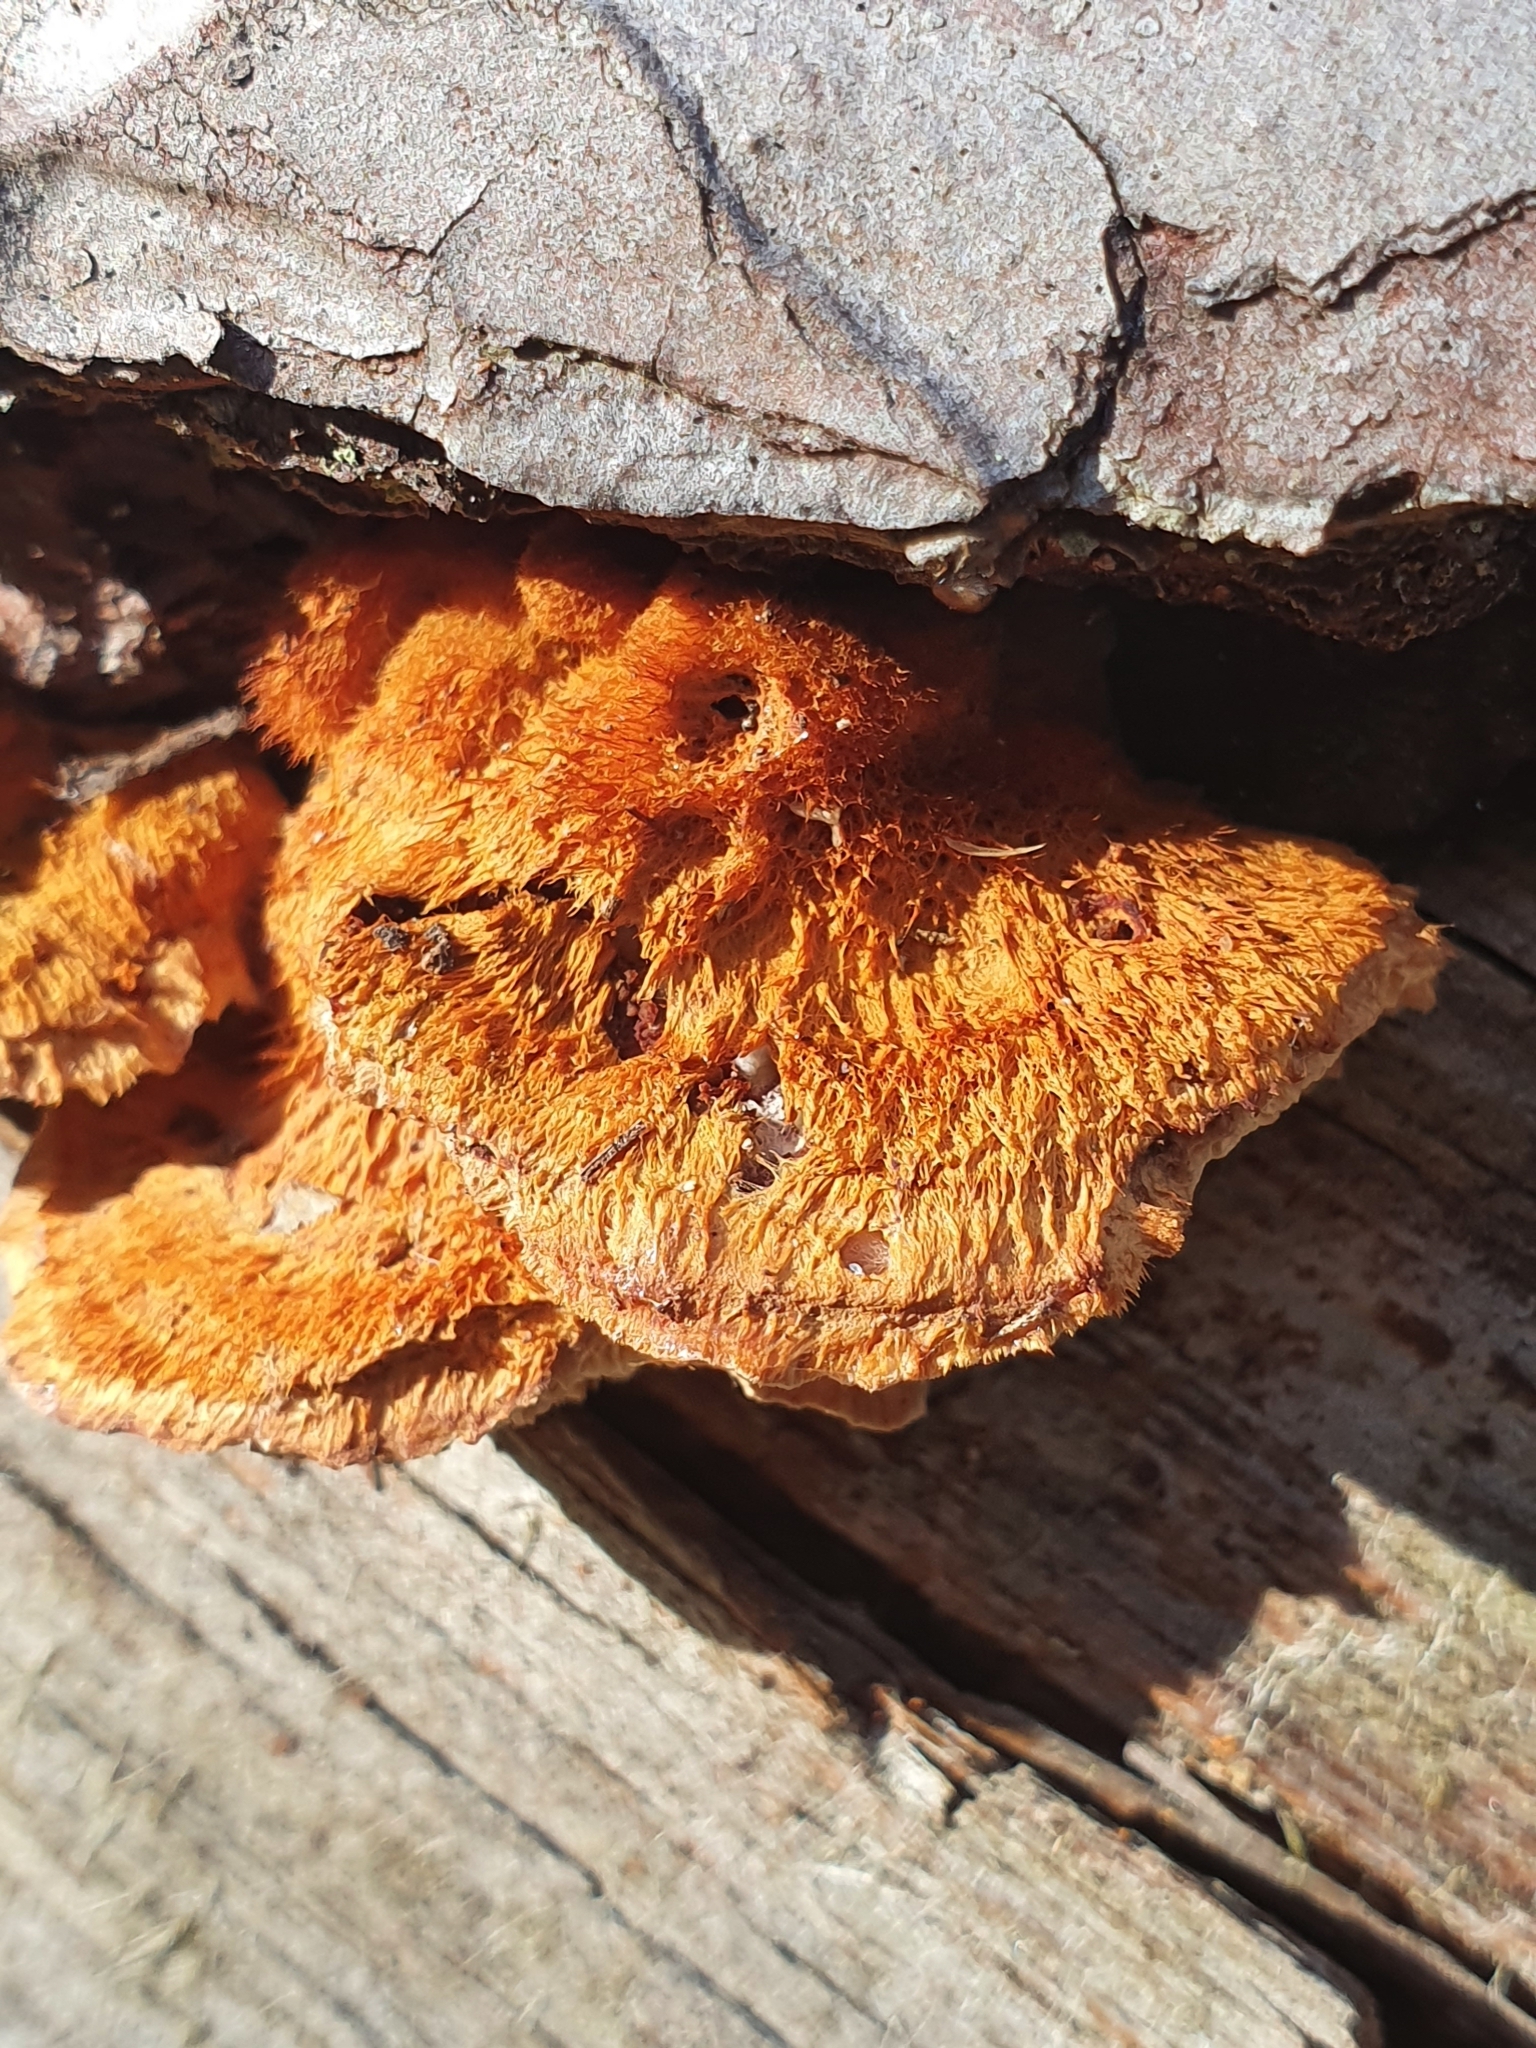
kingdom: Fungi
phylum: Basidiomycota
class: Agaricomycetes
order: Polyporales
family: Pycnoporellaceae
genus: Pycnoporellus
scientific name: Pycnoporellus fulgens
